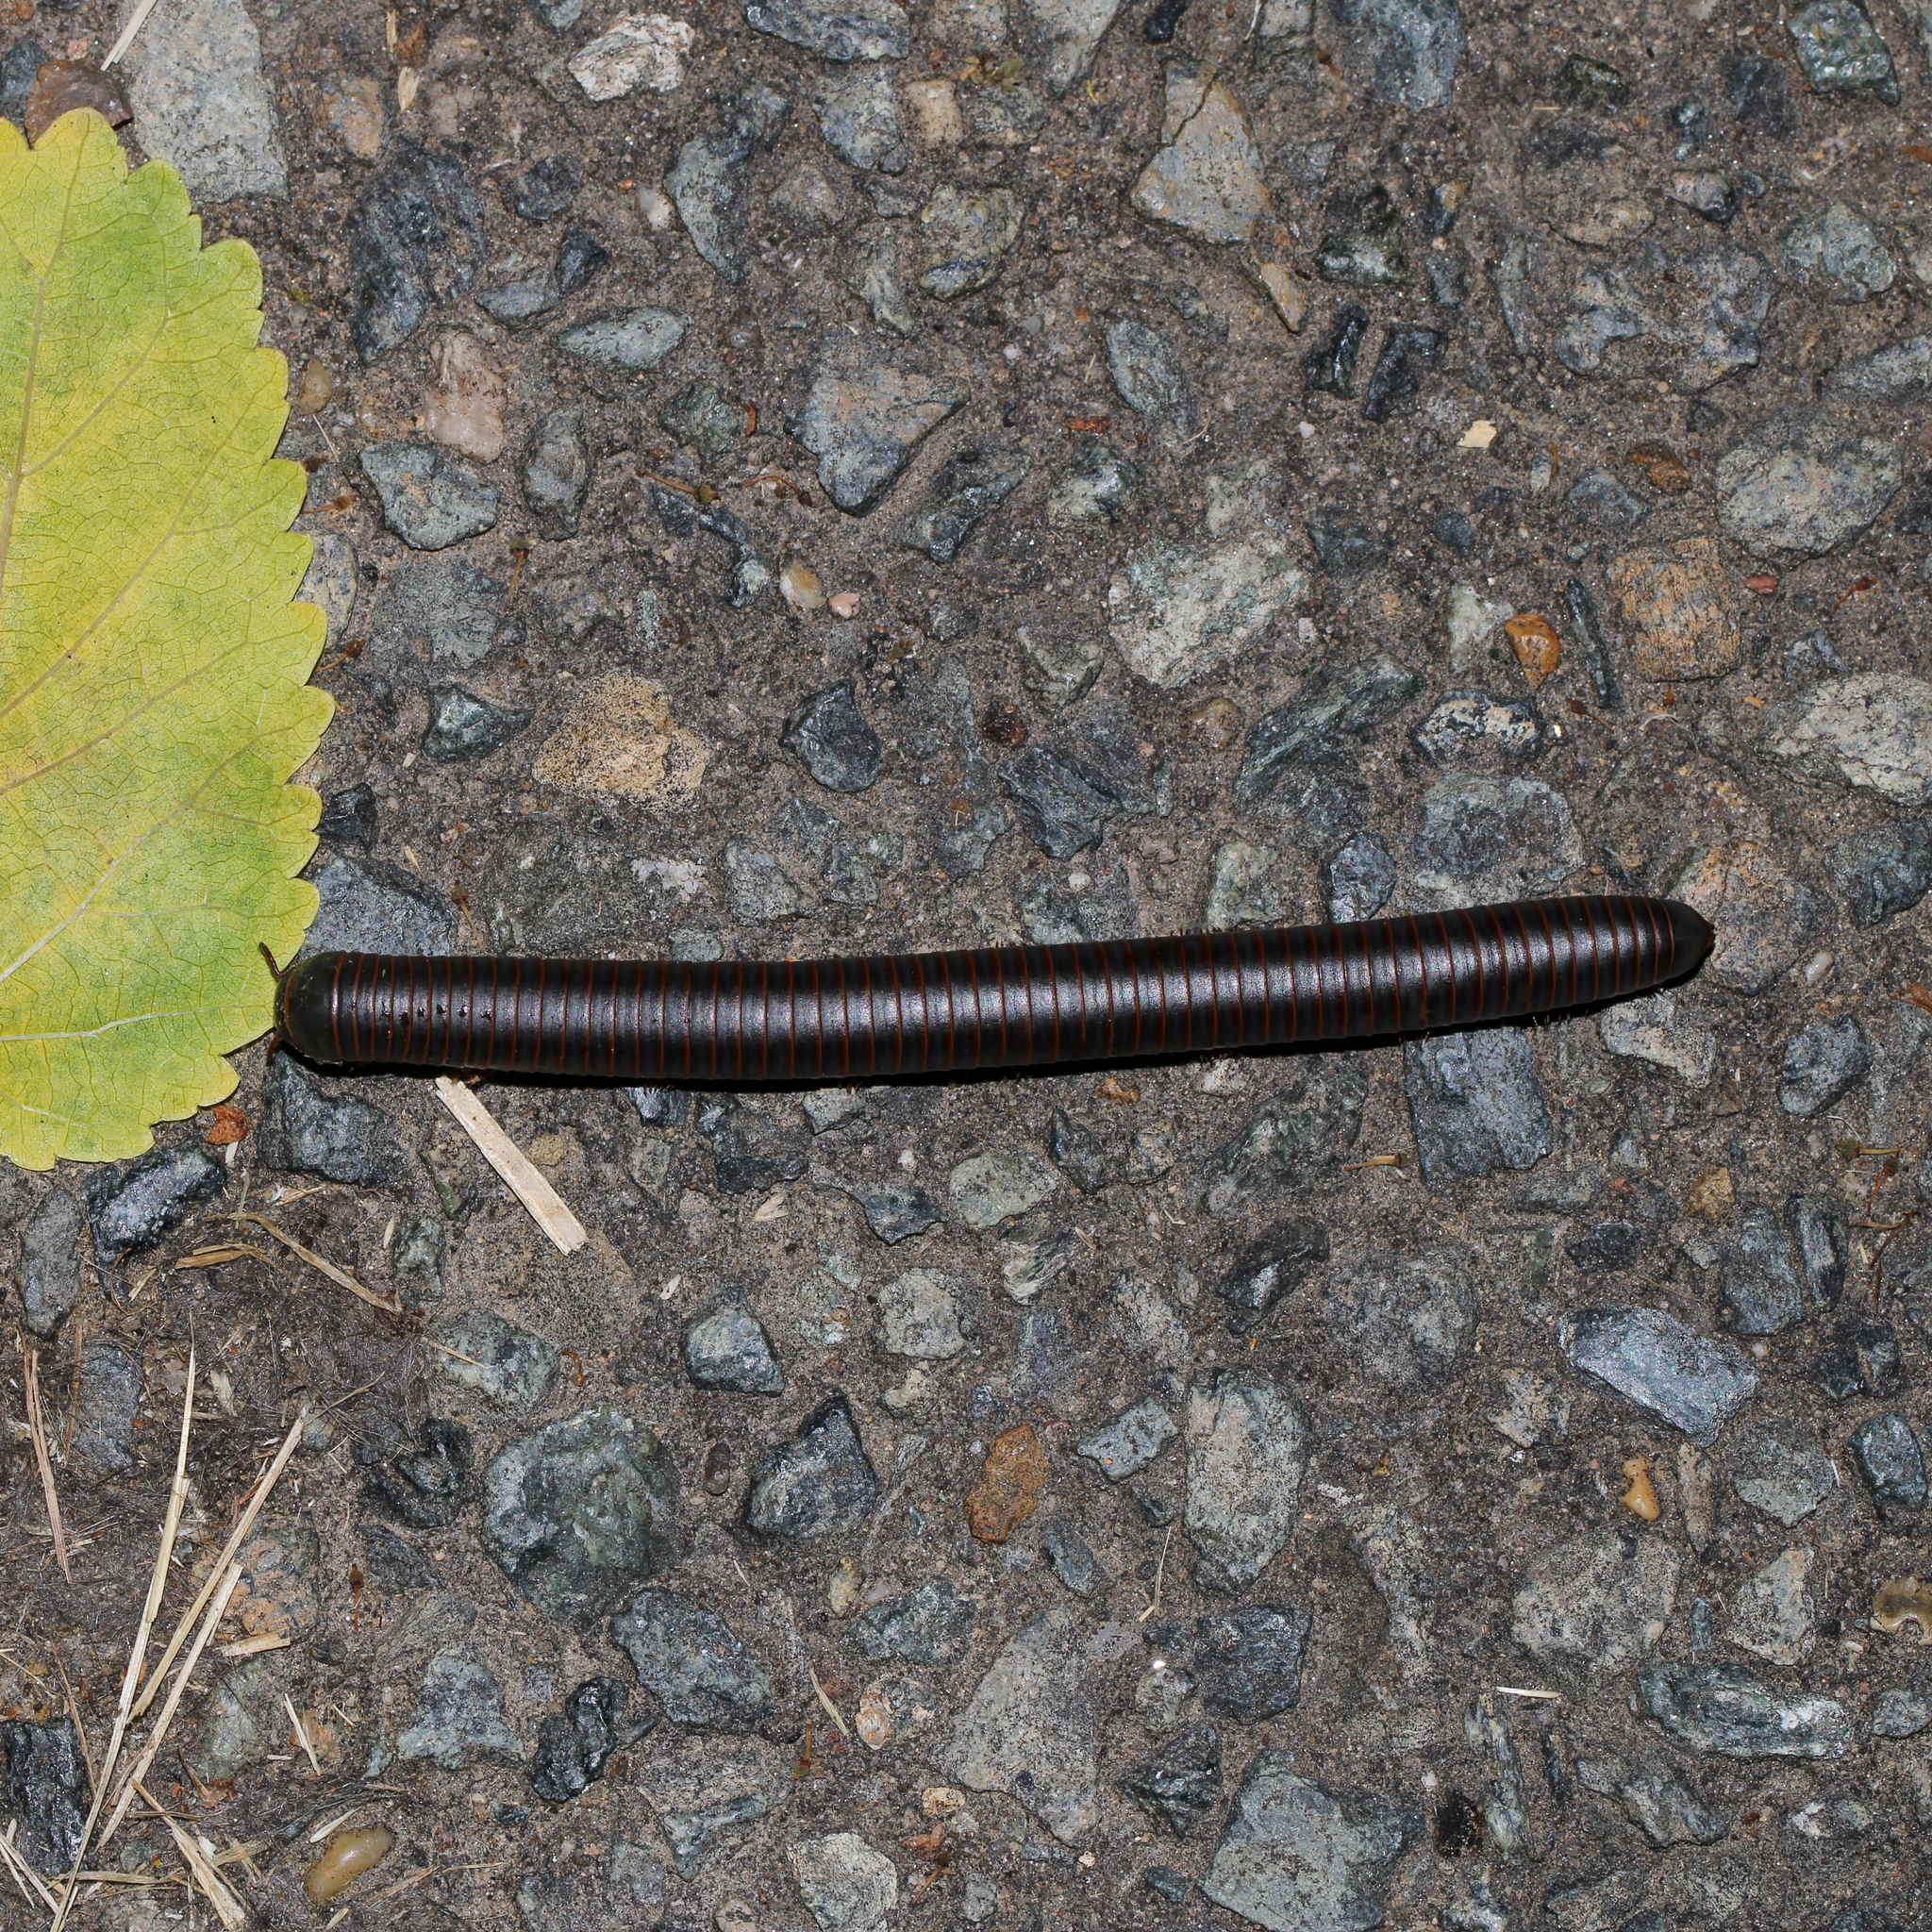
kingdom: Animalia
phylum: Arthropoda
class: Diplopoda
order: Spirobolida
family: Spirobolidae
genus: Narceus
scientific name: Narceus
